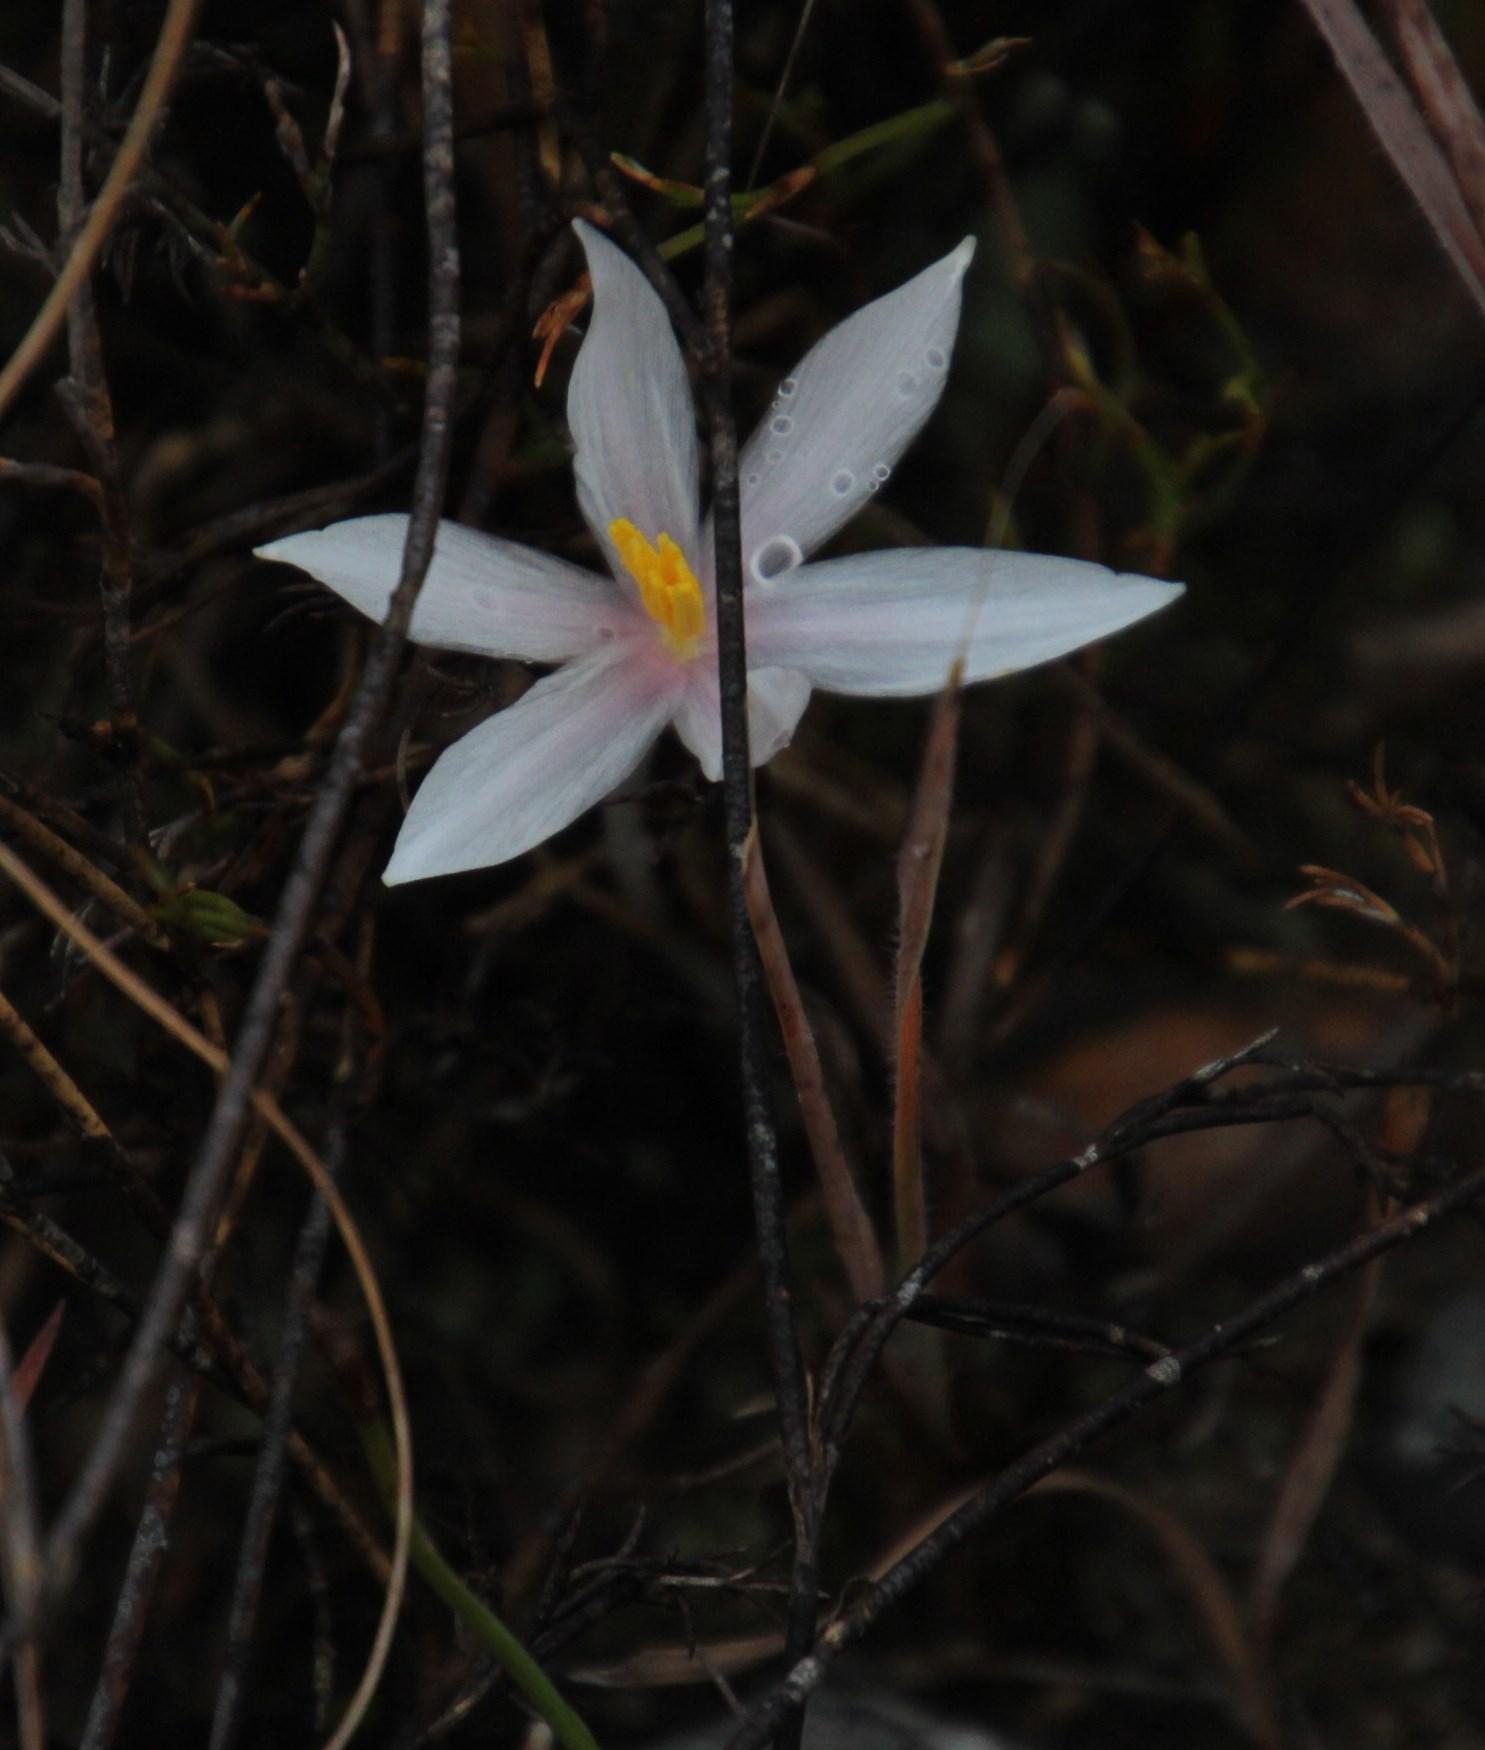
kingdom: Plantae
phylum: Tracheophyta
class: Liliopsida
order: Asparagales
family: Amaryllidaceae
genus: Gethyllis
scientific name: Gethyllis villosa
